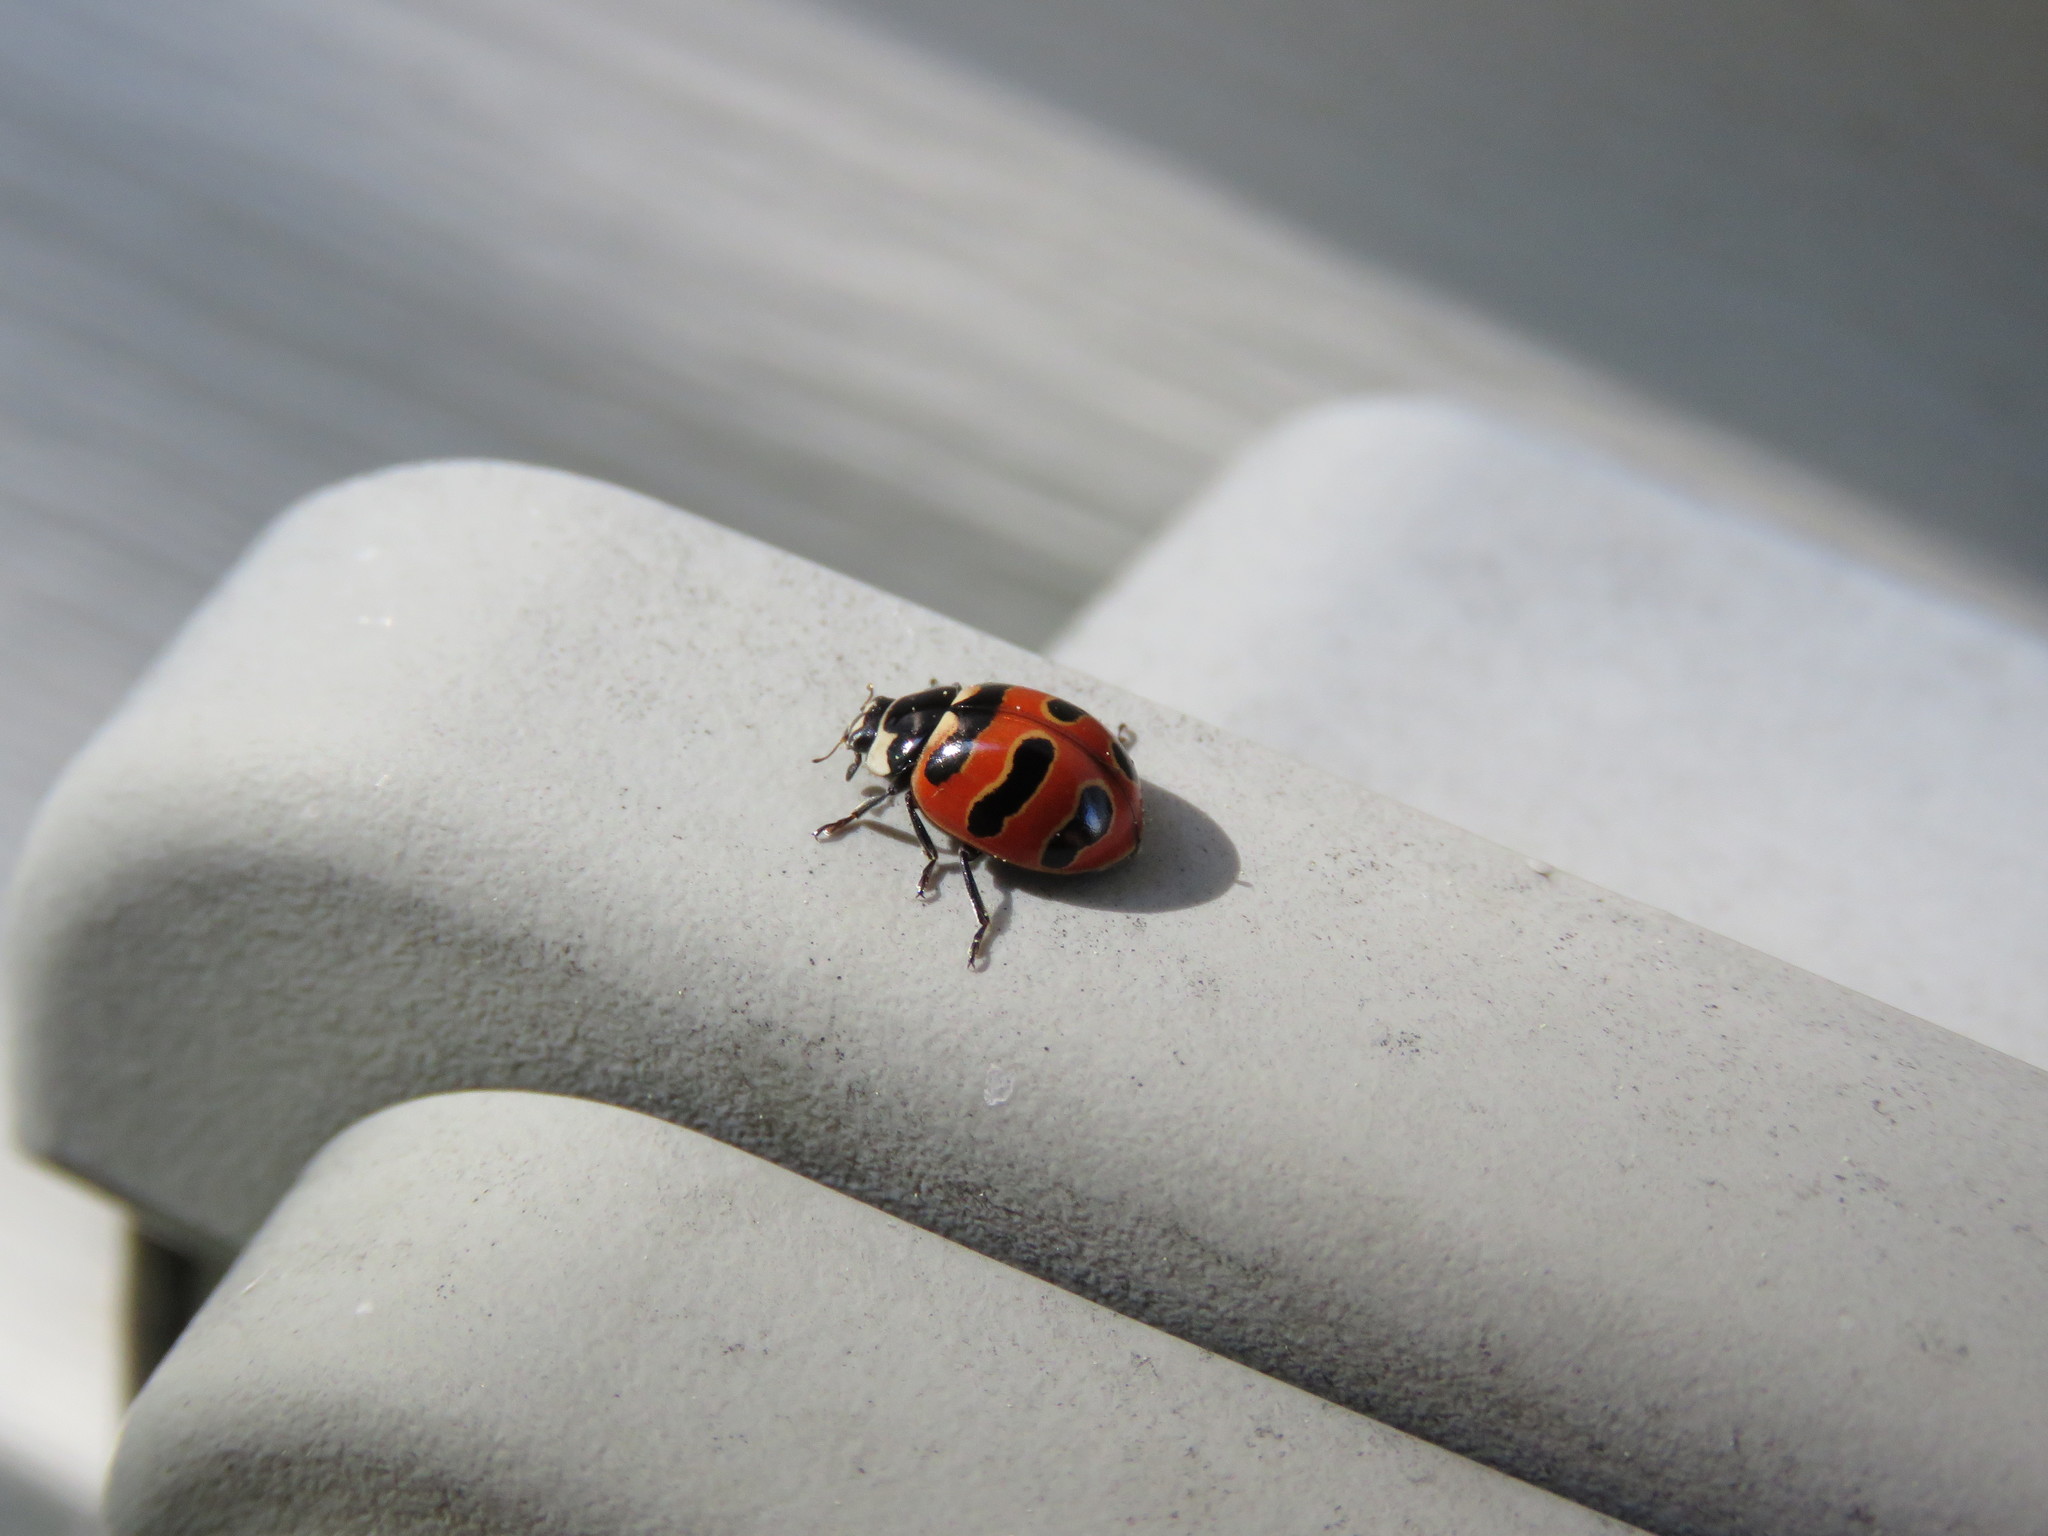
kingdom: Animalia
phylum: Arthropoda
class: Insecta
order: Coleoptera
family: Coccinellidae
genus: Coccinella
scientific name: Coccinella trifasciata
